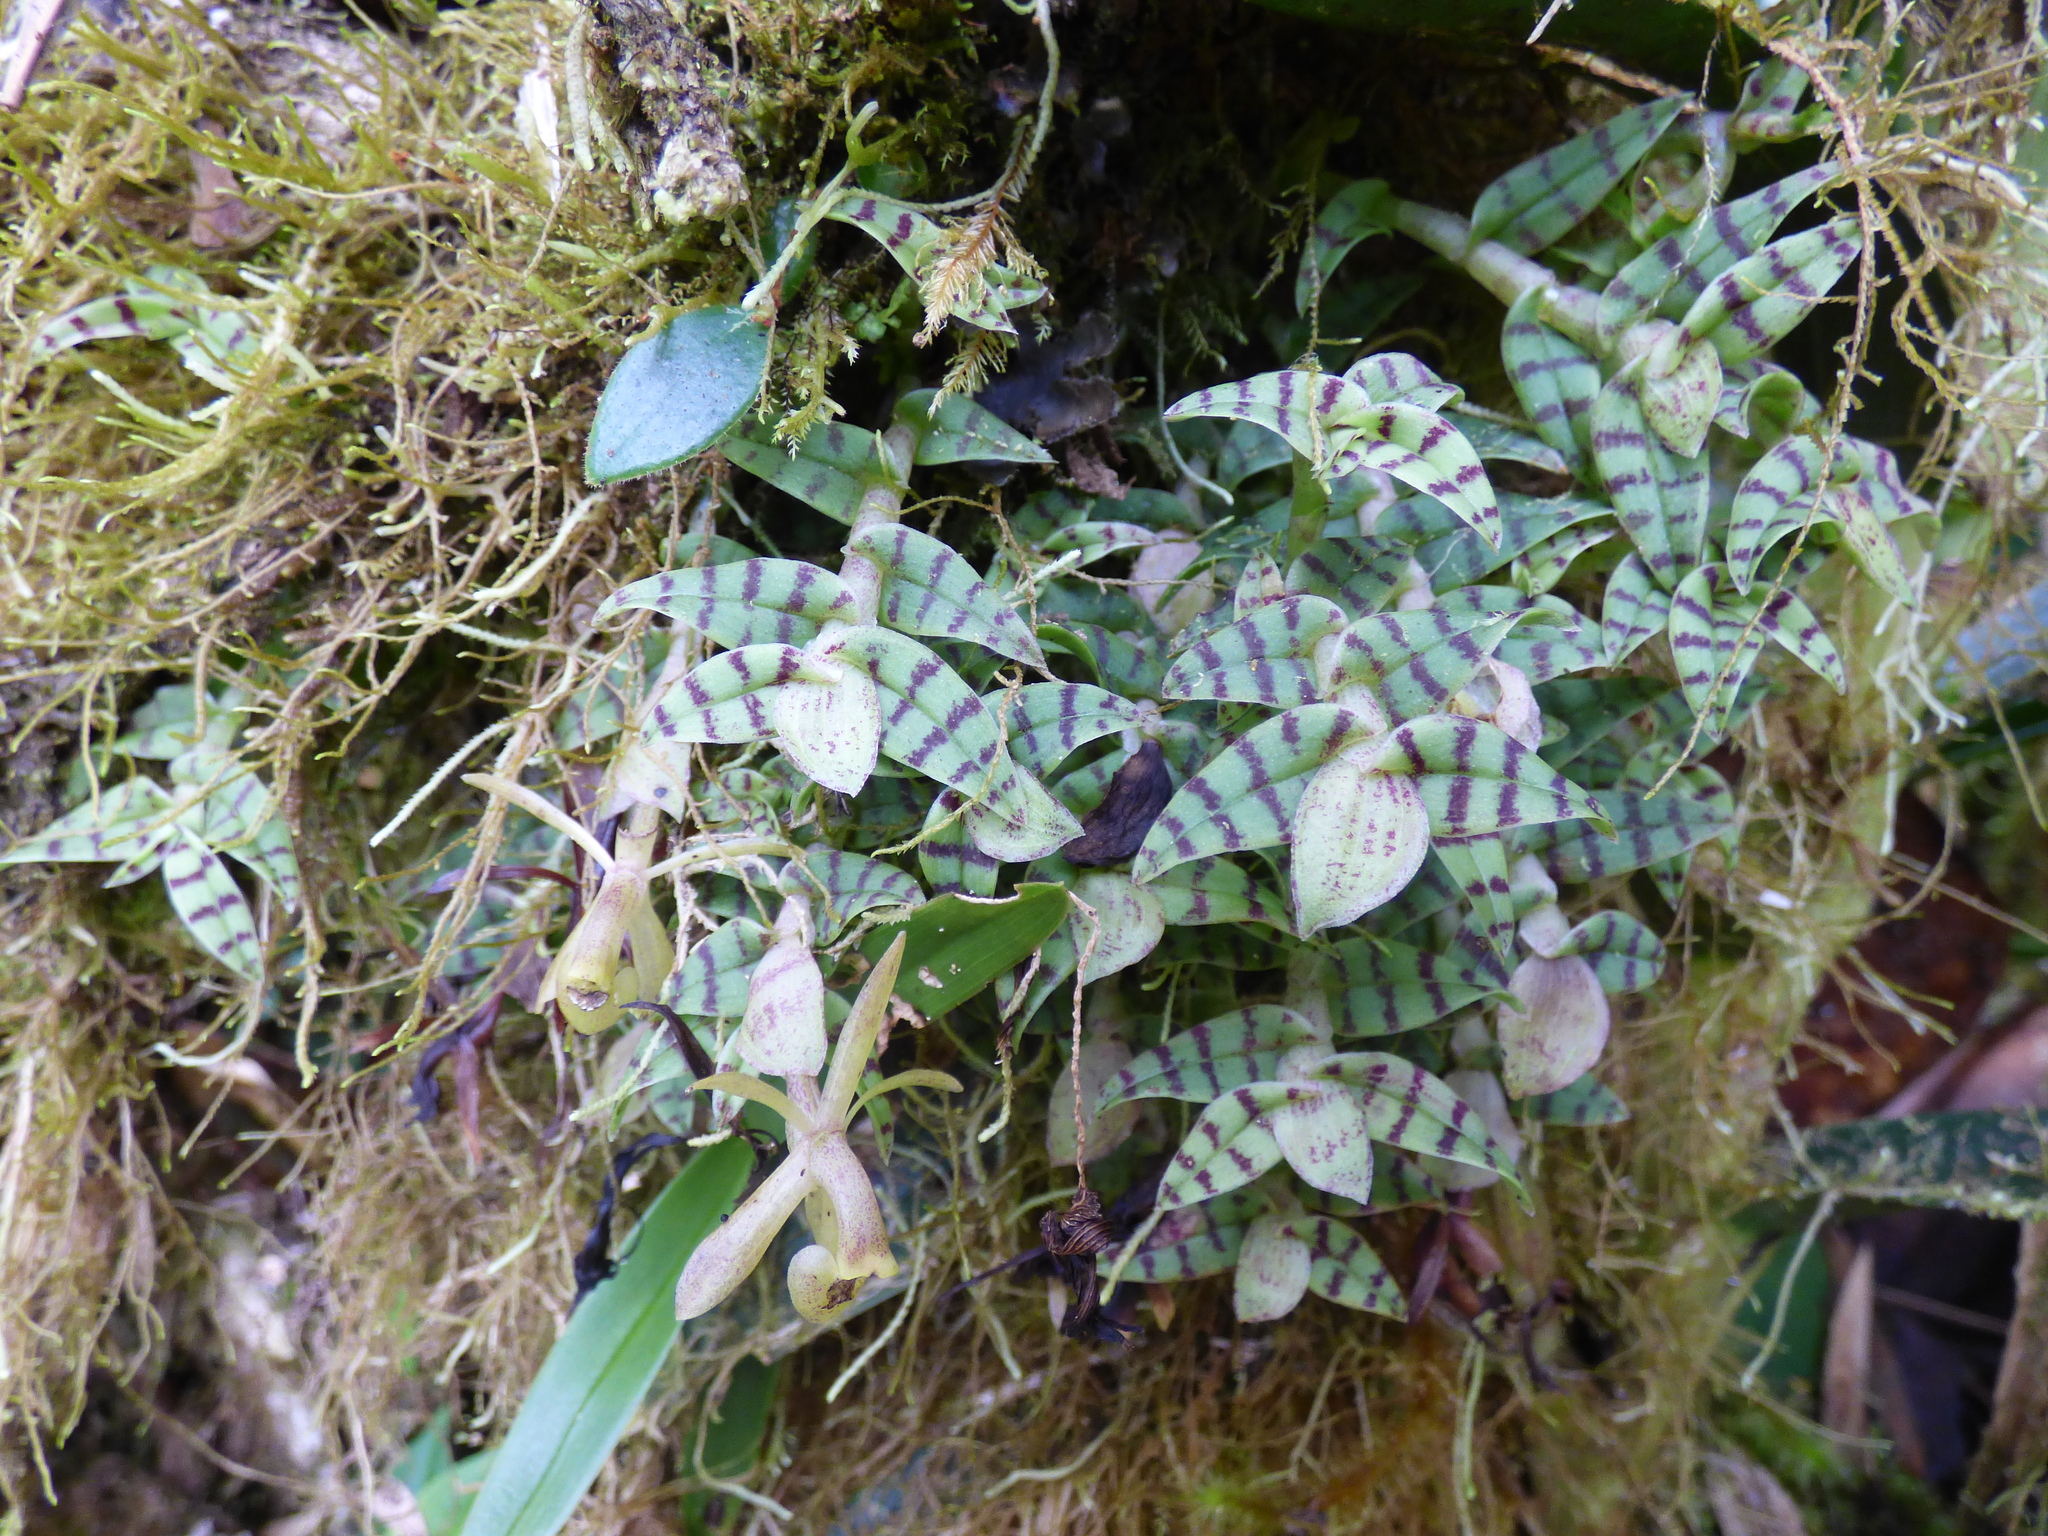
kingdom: Plantae
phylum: Tracheophyta
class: Liliopsida
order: Asparagales
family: Orchidaceae
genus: Epidendrum
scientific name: Epidendrum stanhopeanum
